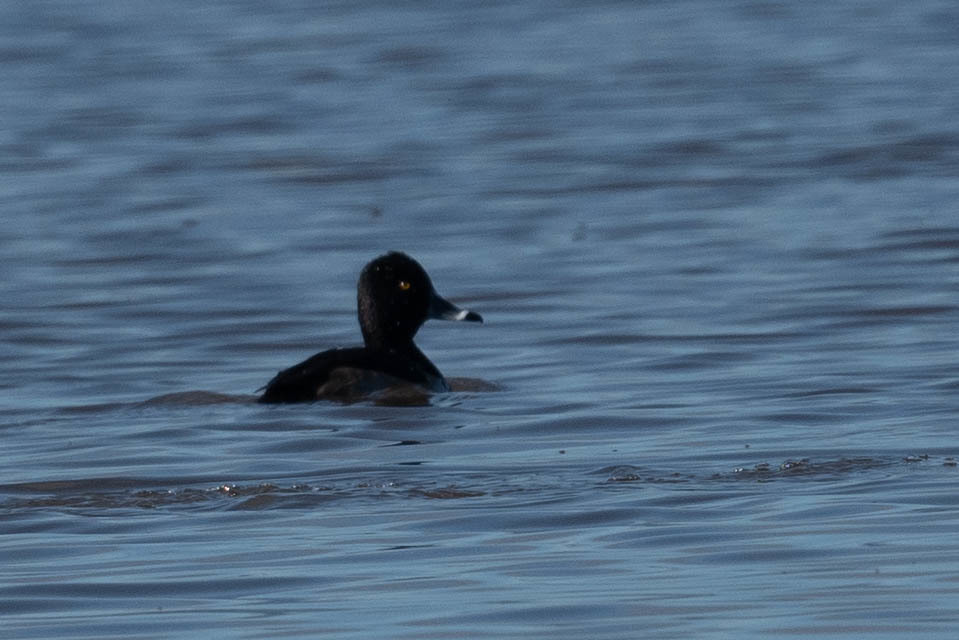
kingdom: Animalia
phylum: Chordata
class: Aves
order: Anseriformes
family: Anatidae
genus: Aythya
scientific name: Aythya collaris
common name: Ring-necked duck
